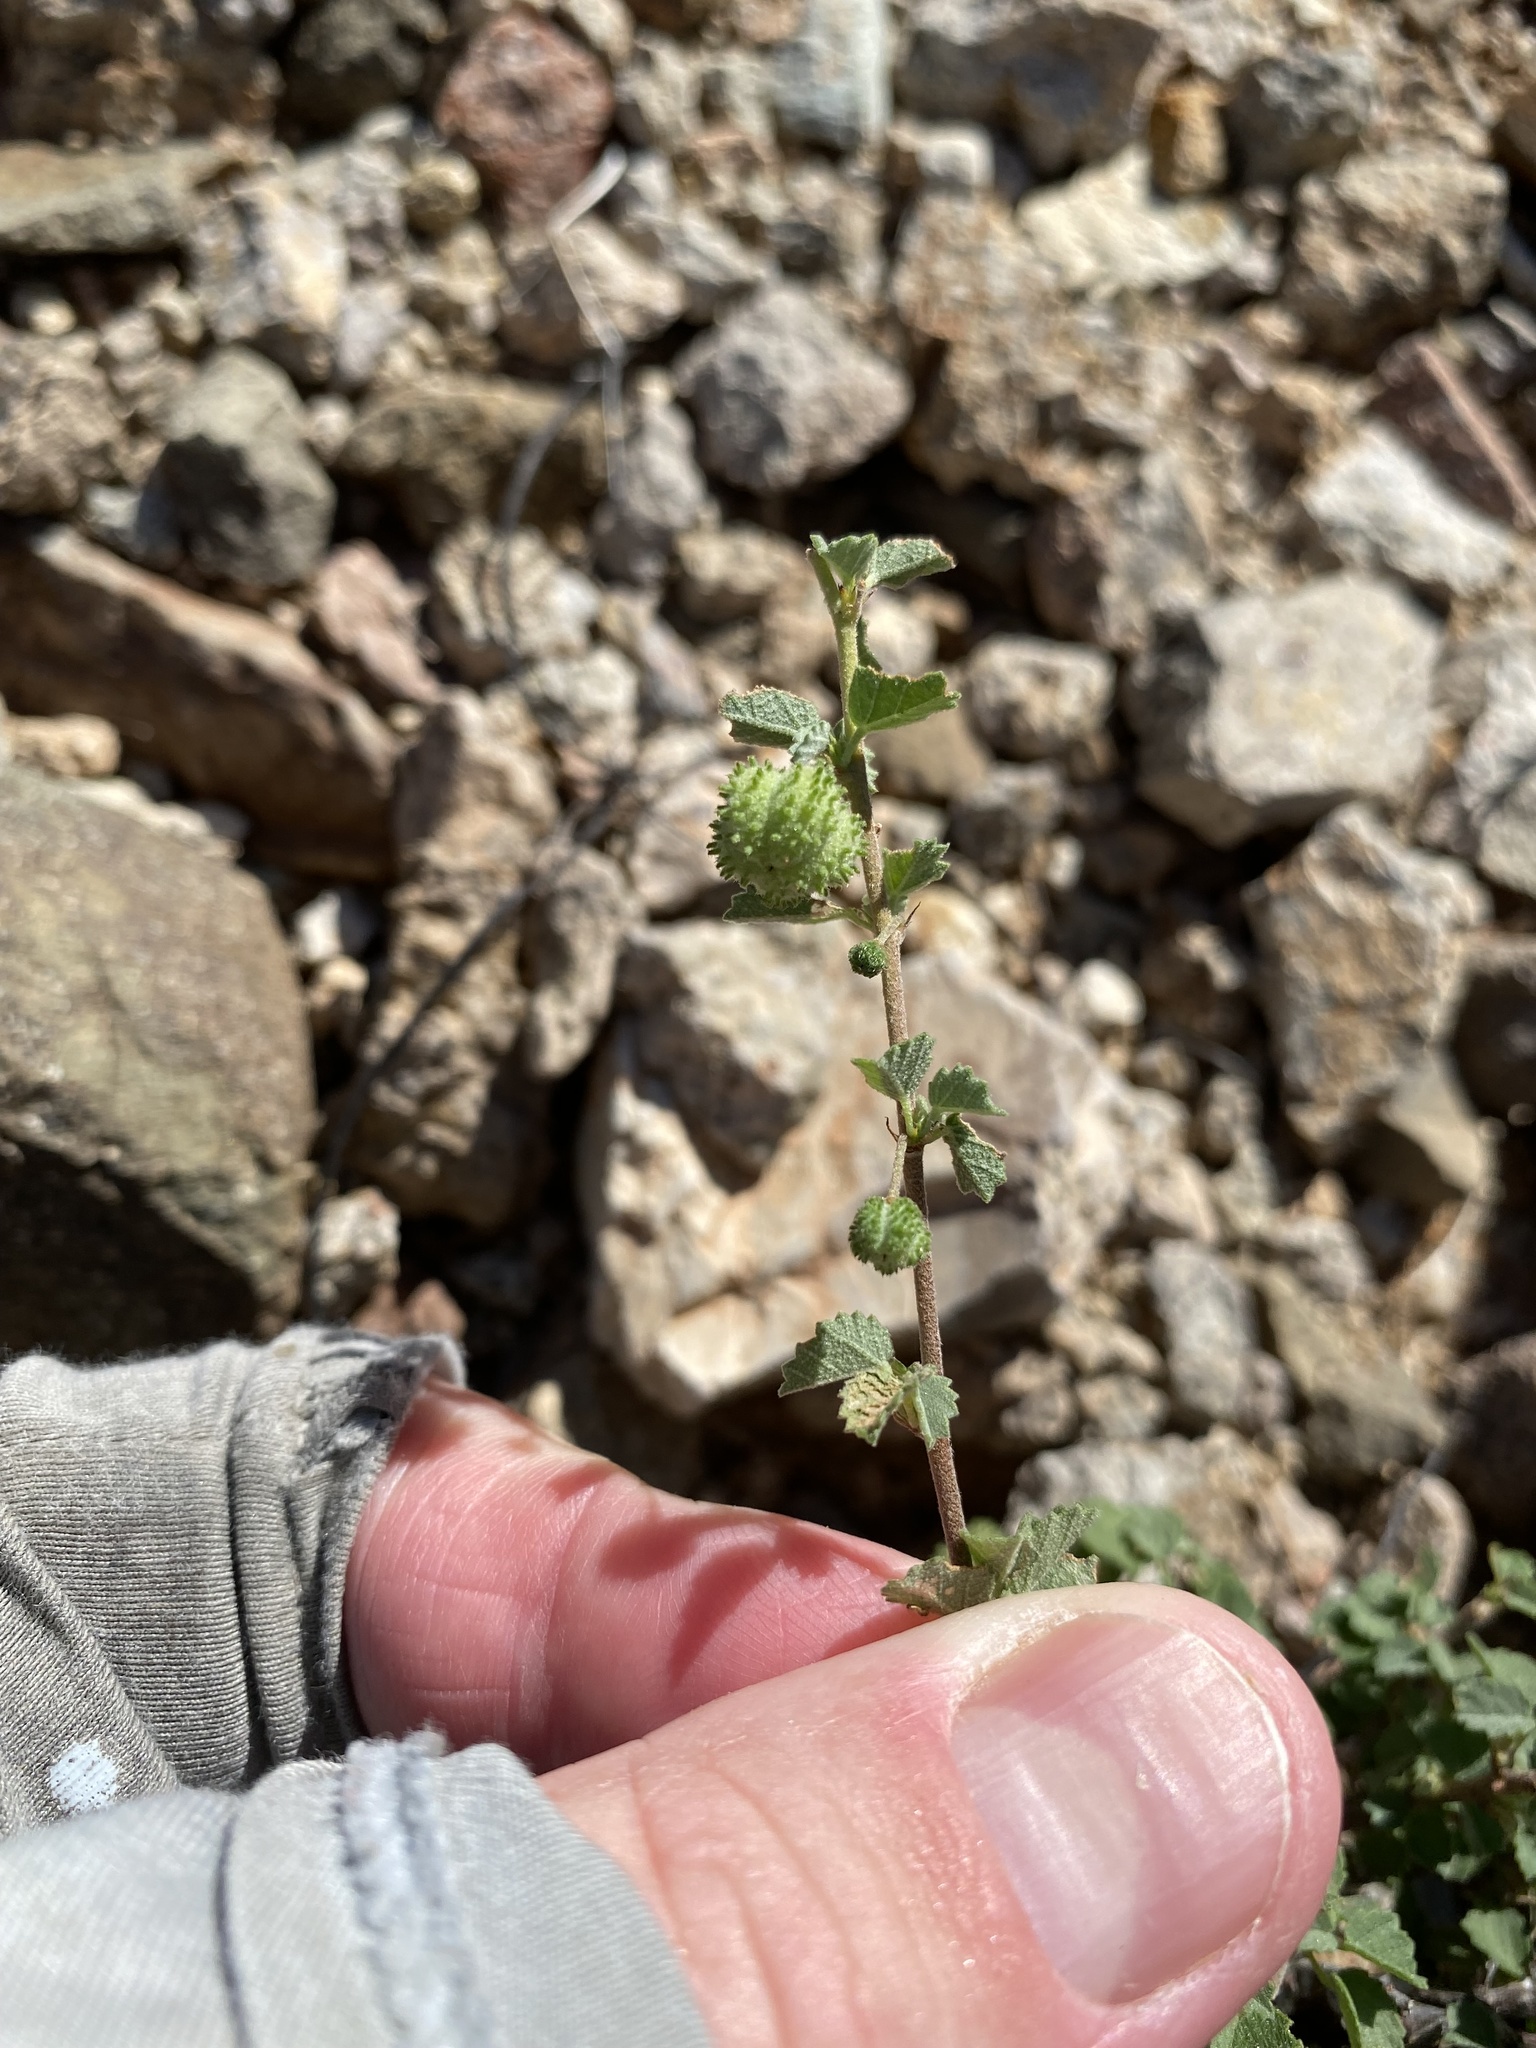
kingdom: Plantae
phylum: Tracheophyta
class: Magnoliopsida
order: Malvales
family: Malvaceae
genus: Ayenia
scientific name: Ayenia microphylla
